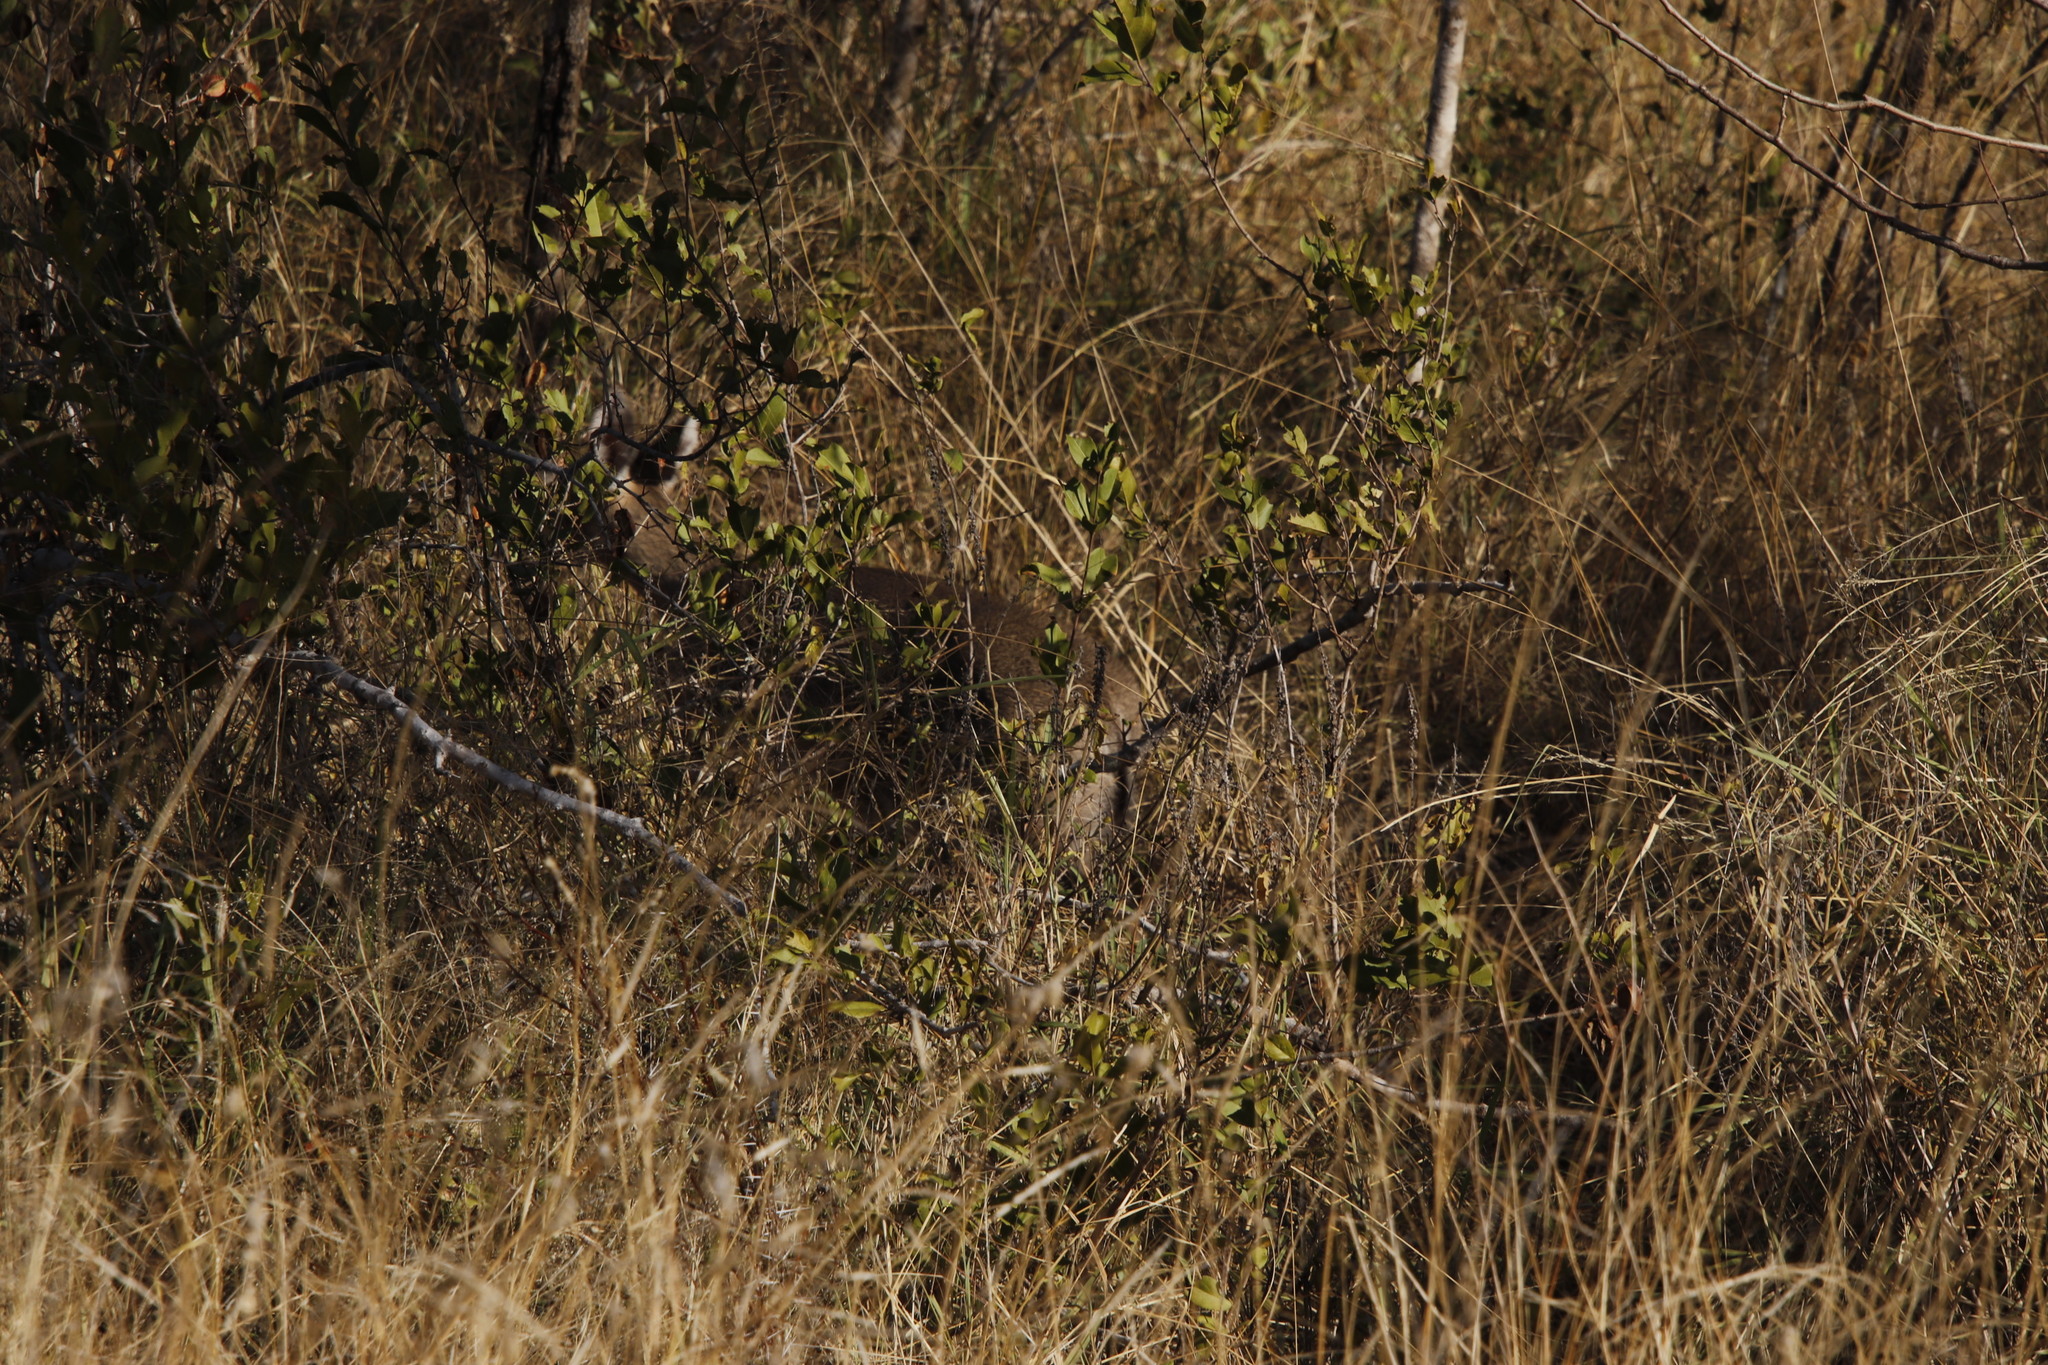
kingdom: Animalia
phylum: Chordata
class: Mammalia
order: Artiodactyla
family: Bovidae
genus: Sylvicapra
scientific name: Sylvicapra grimmia
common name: Bush duiker
